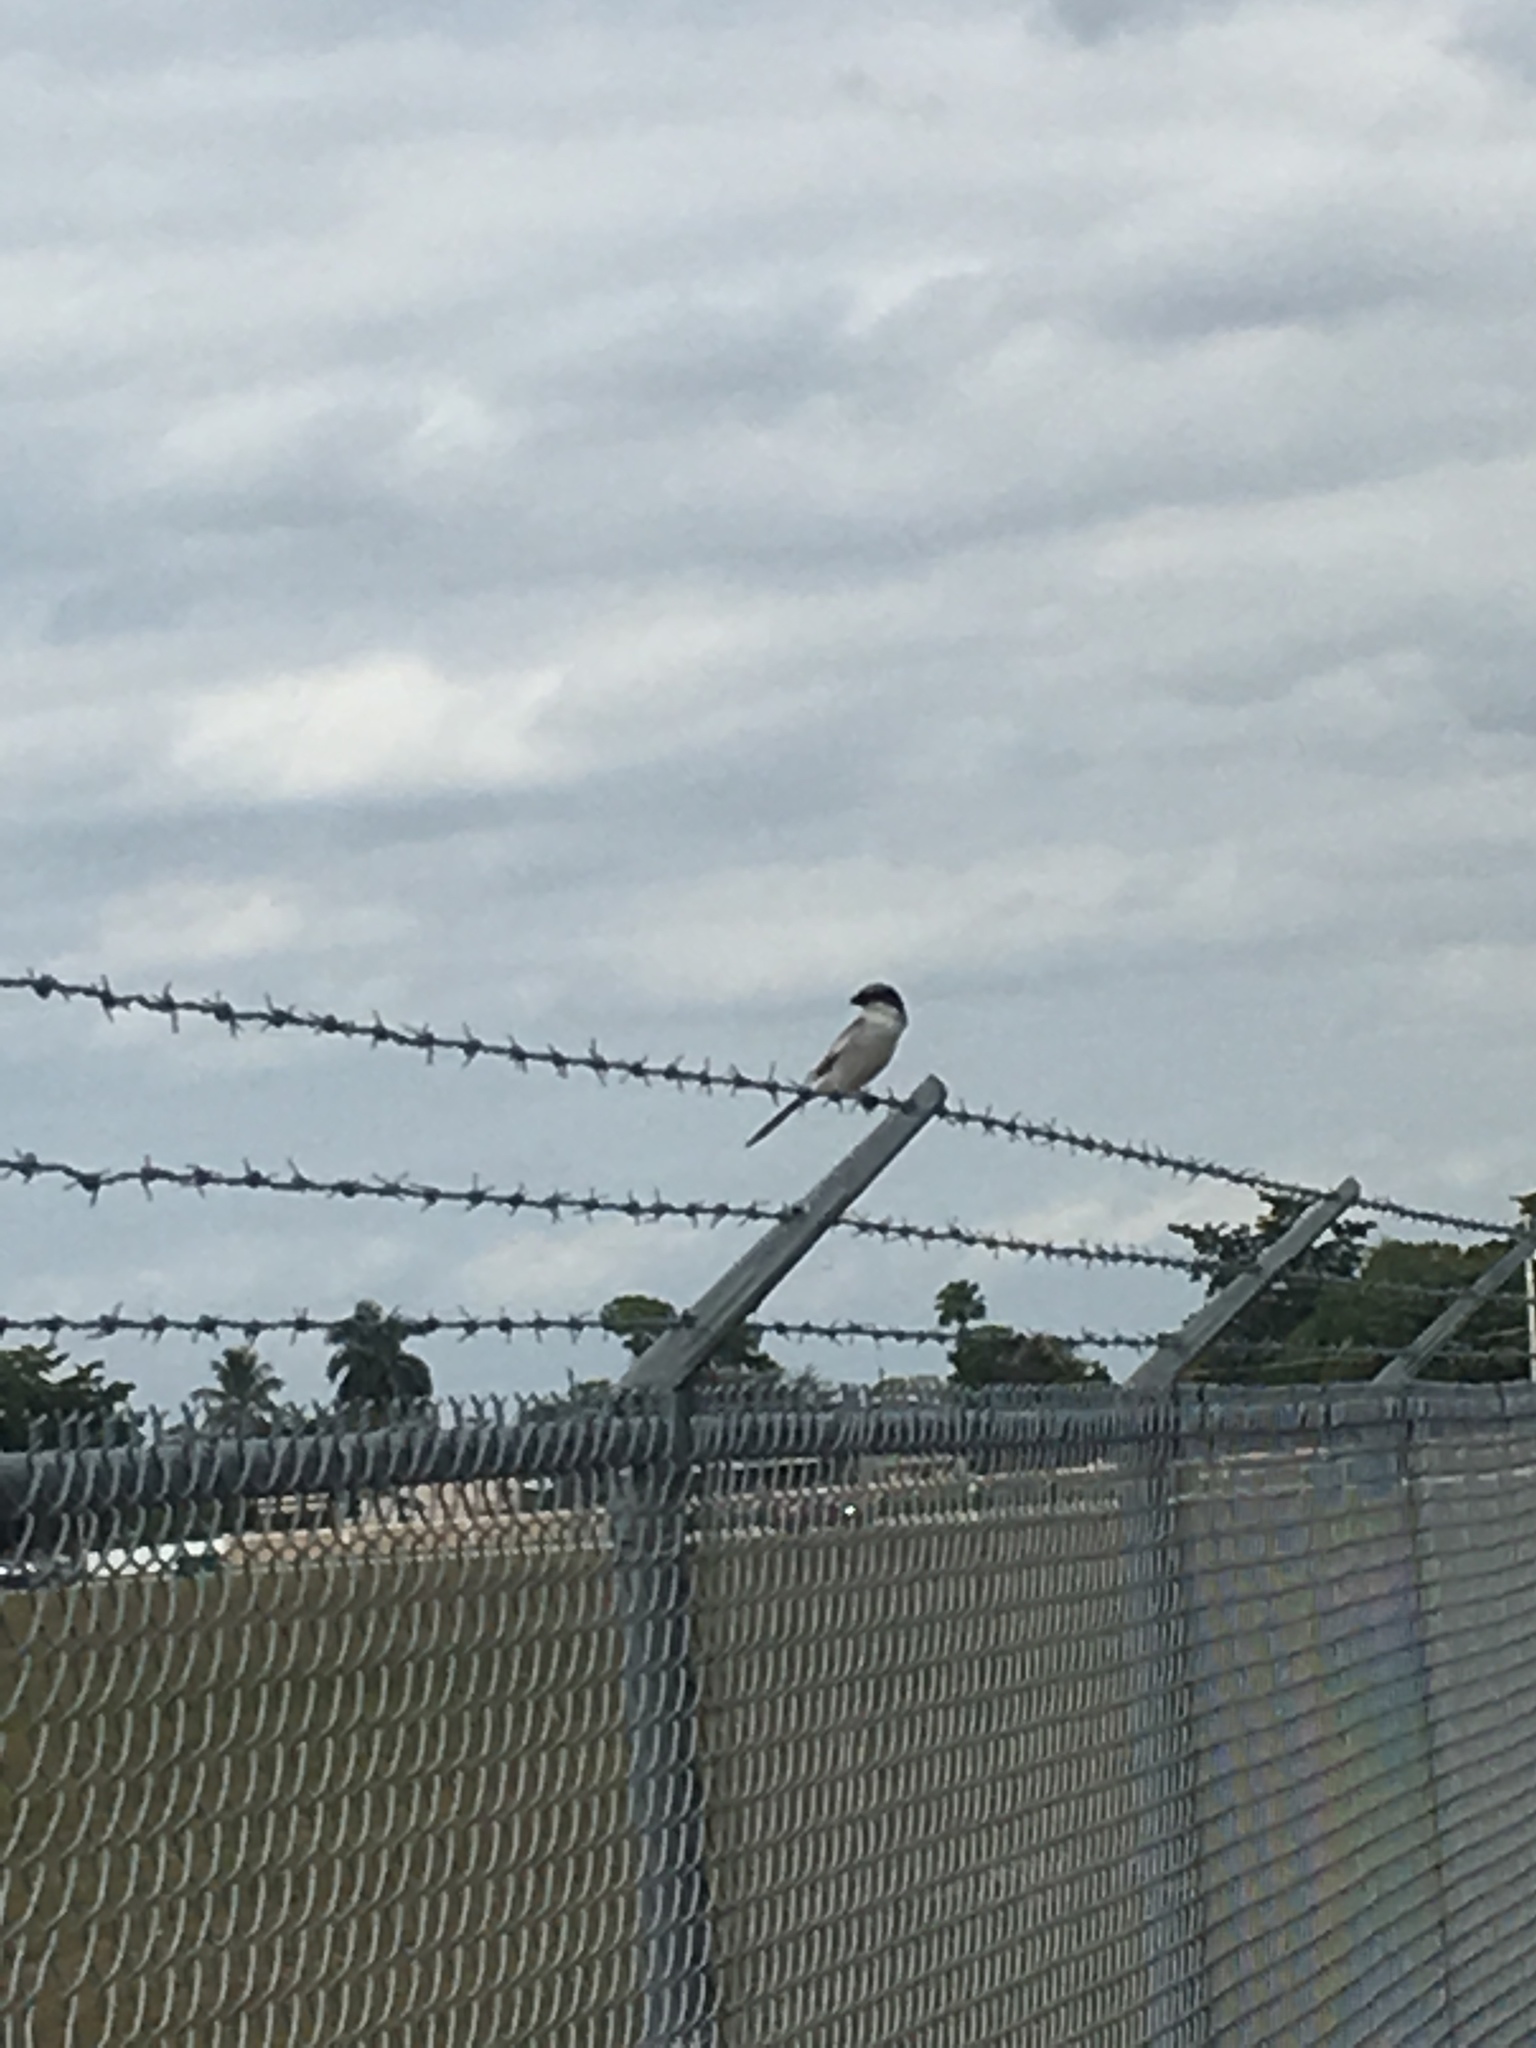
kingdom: Animalia
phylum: Chordata
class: Aves
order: Passeriformes
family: Laniidae
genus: Lanius
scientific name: Lanius ludovicianus
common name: Loggerhead shrike
